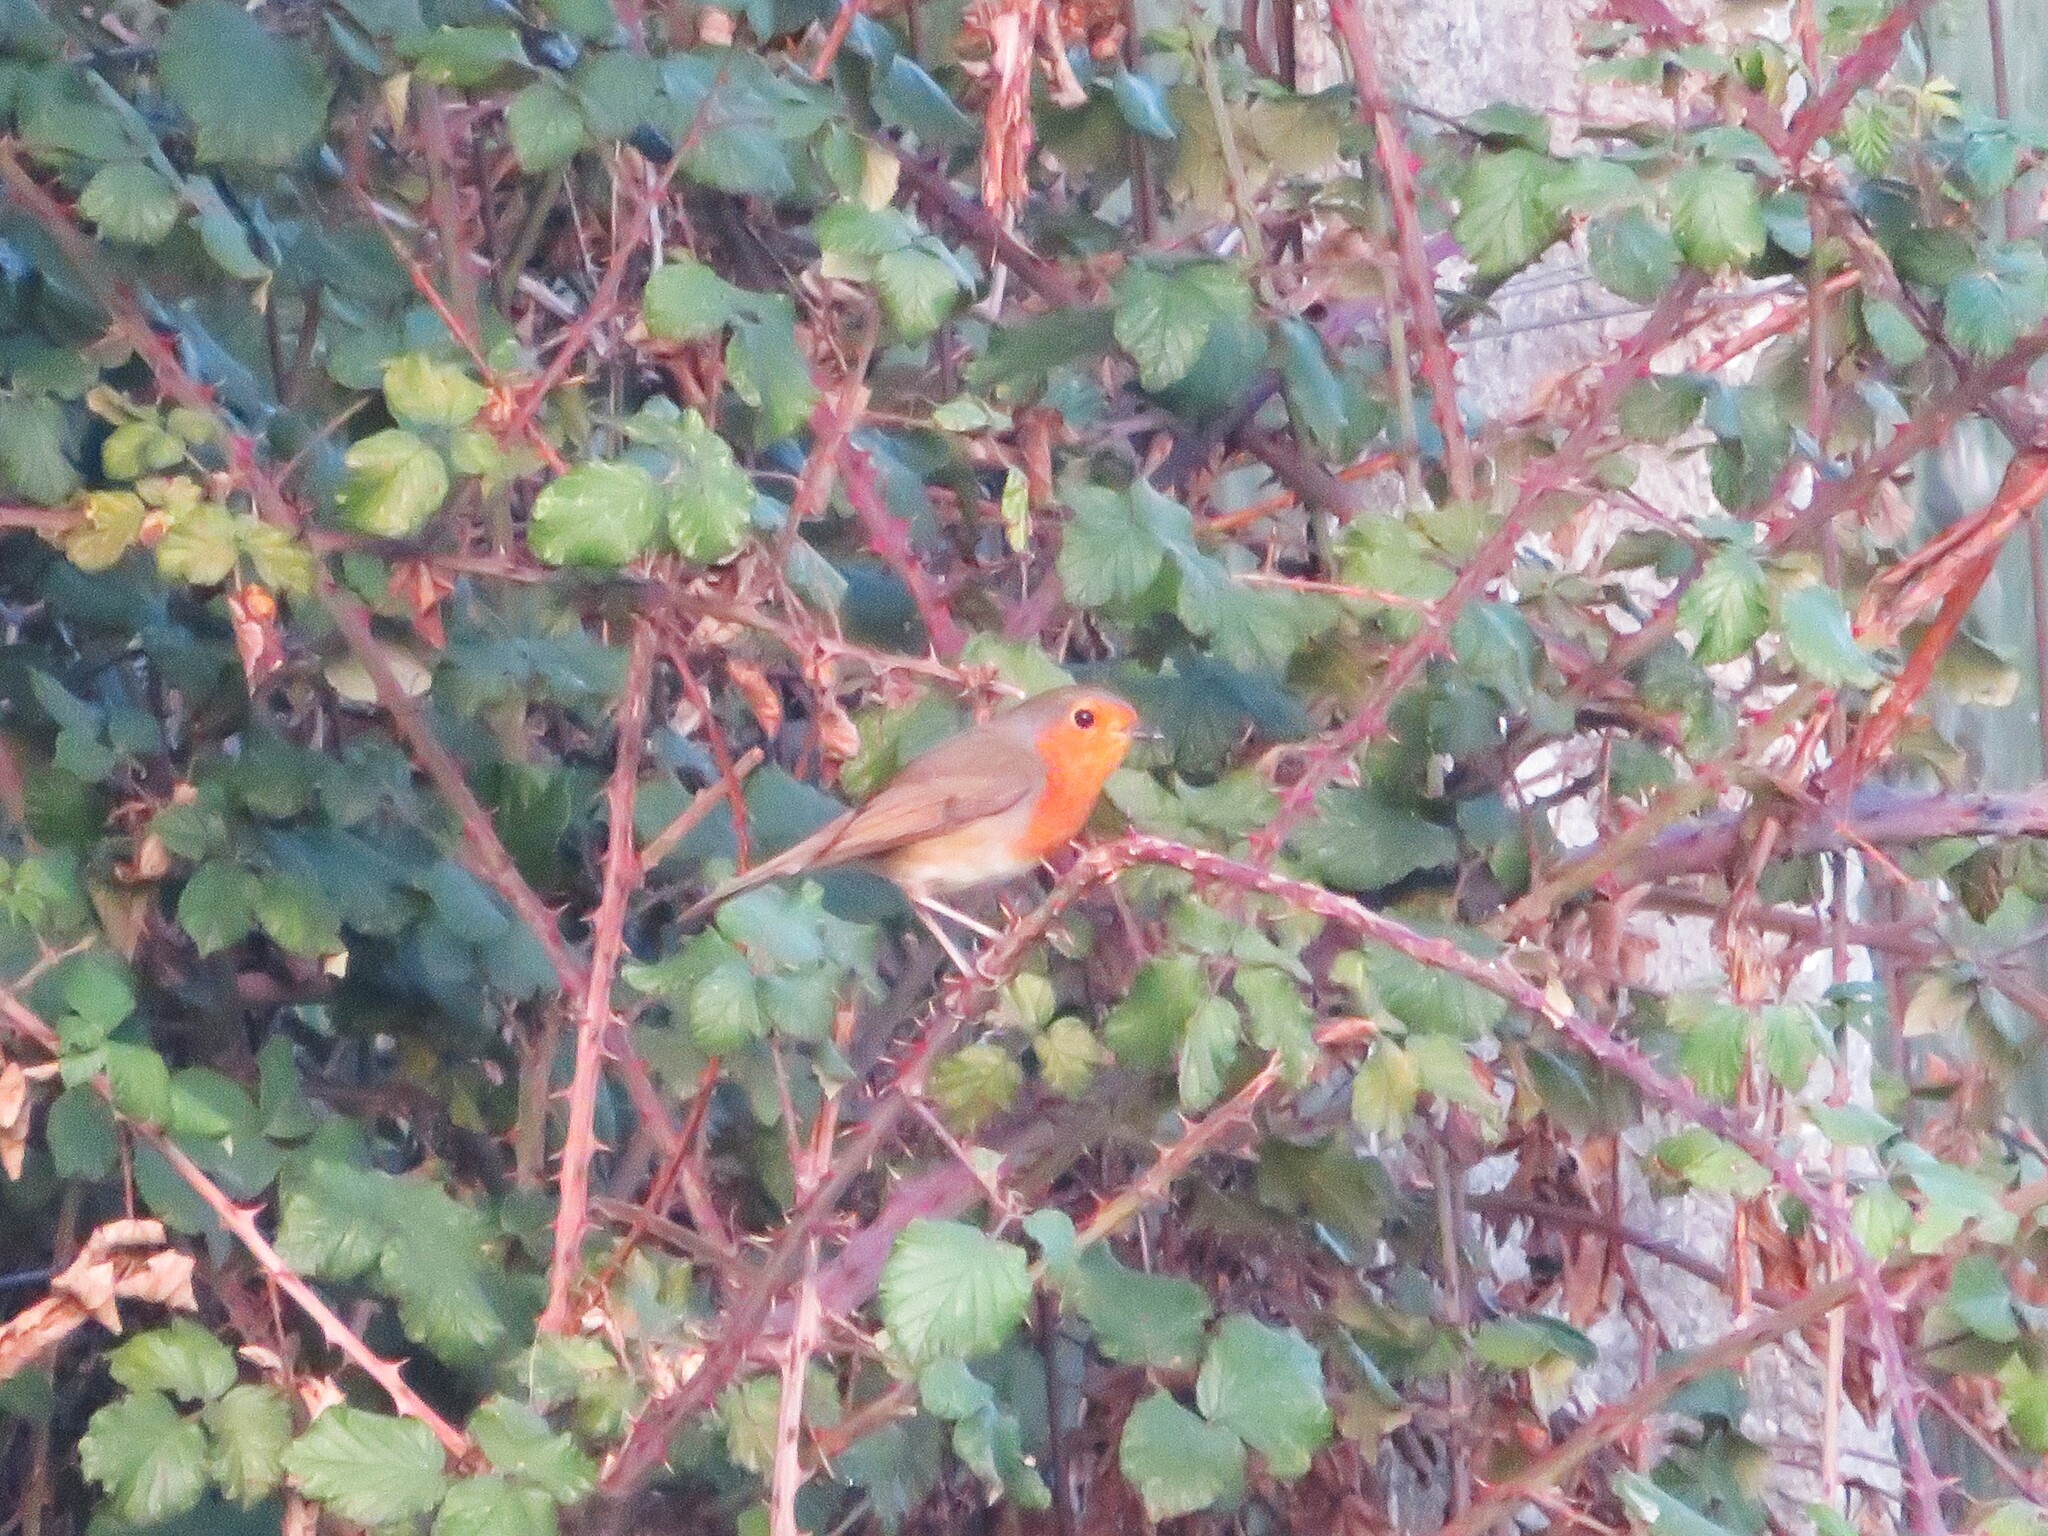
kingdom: Animalia
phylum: Chordata
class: Aves
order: Passeriformes
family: Muscicapidae
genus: Erithacus
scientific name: Erithacus rubecula
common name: European robin
